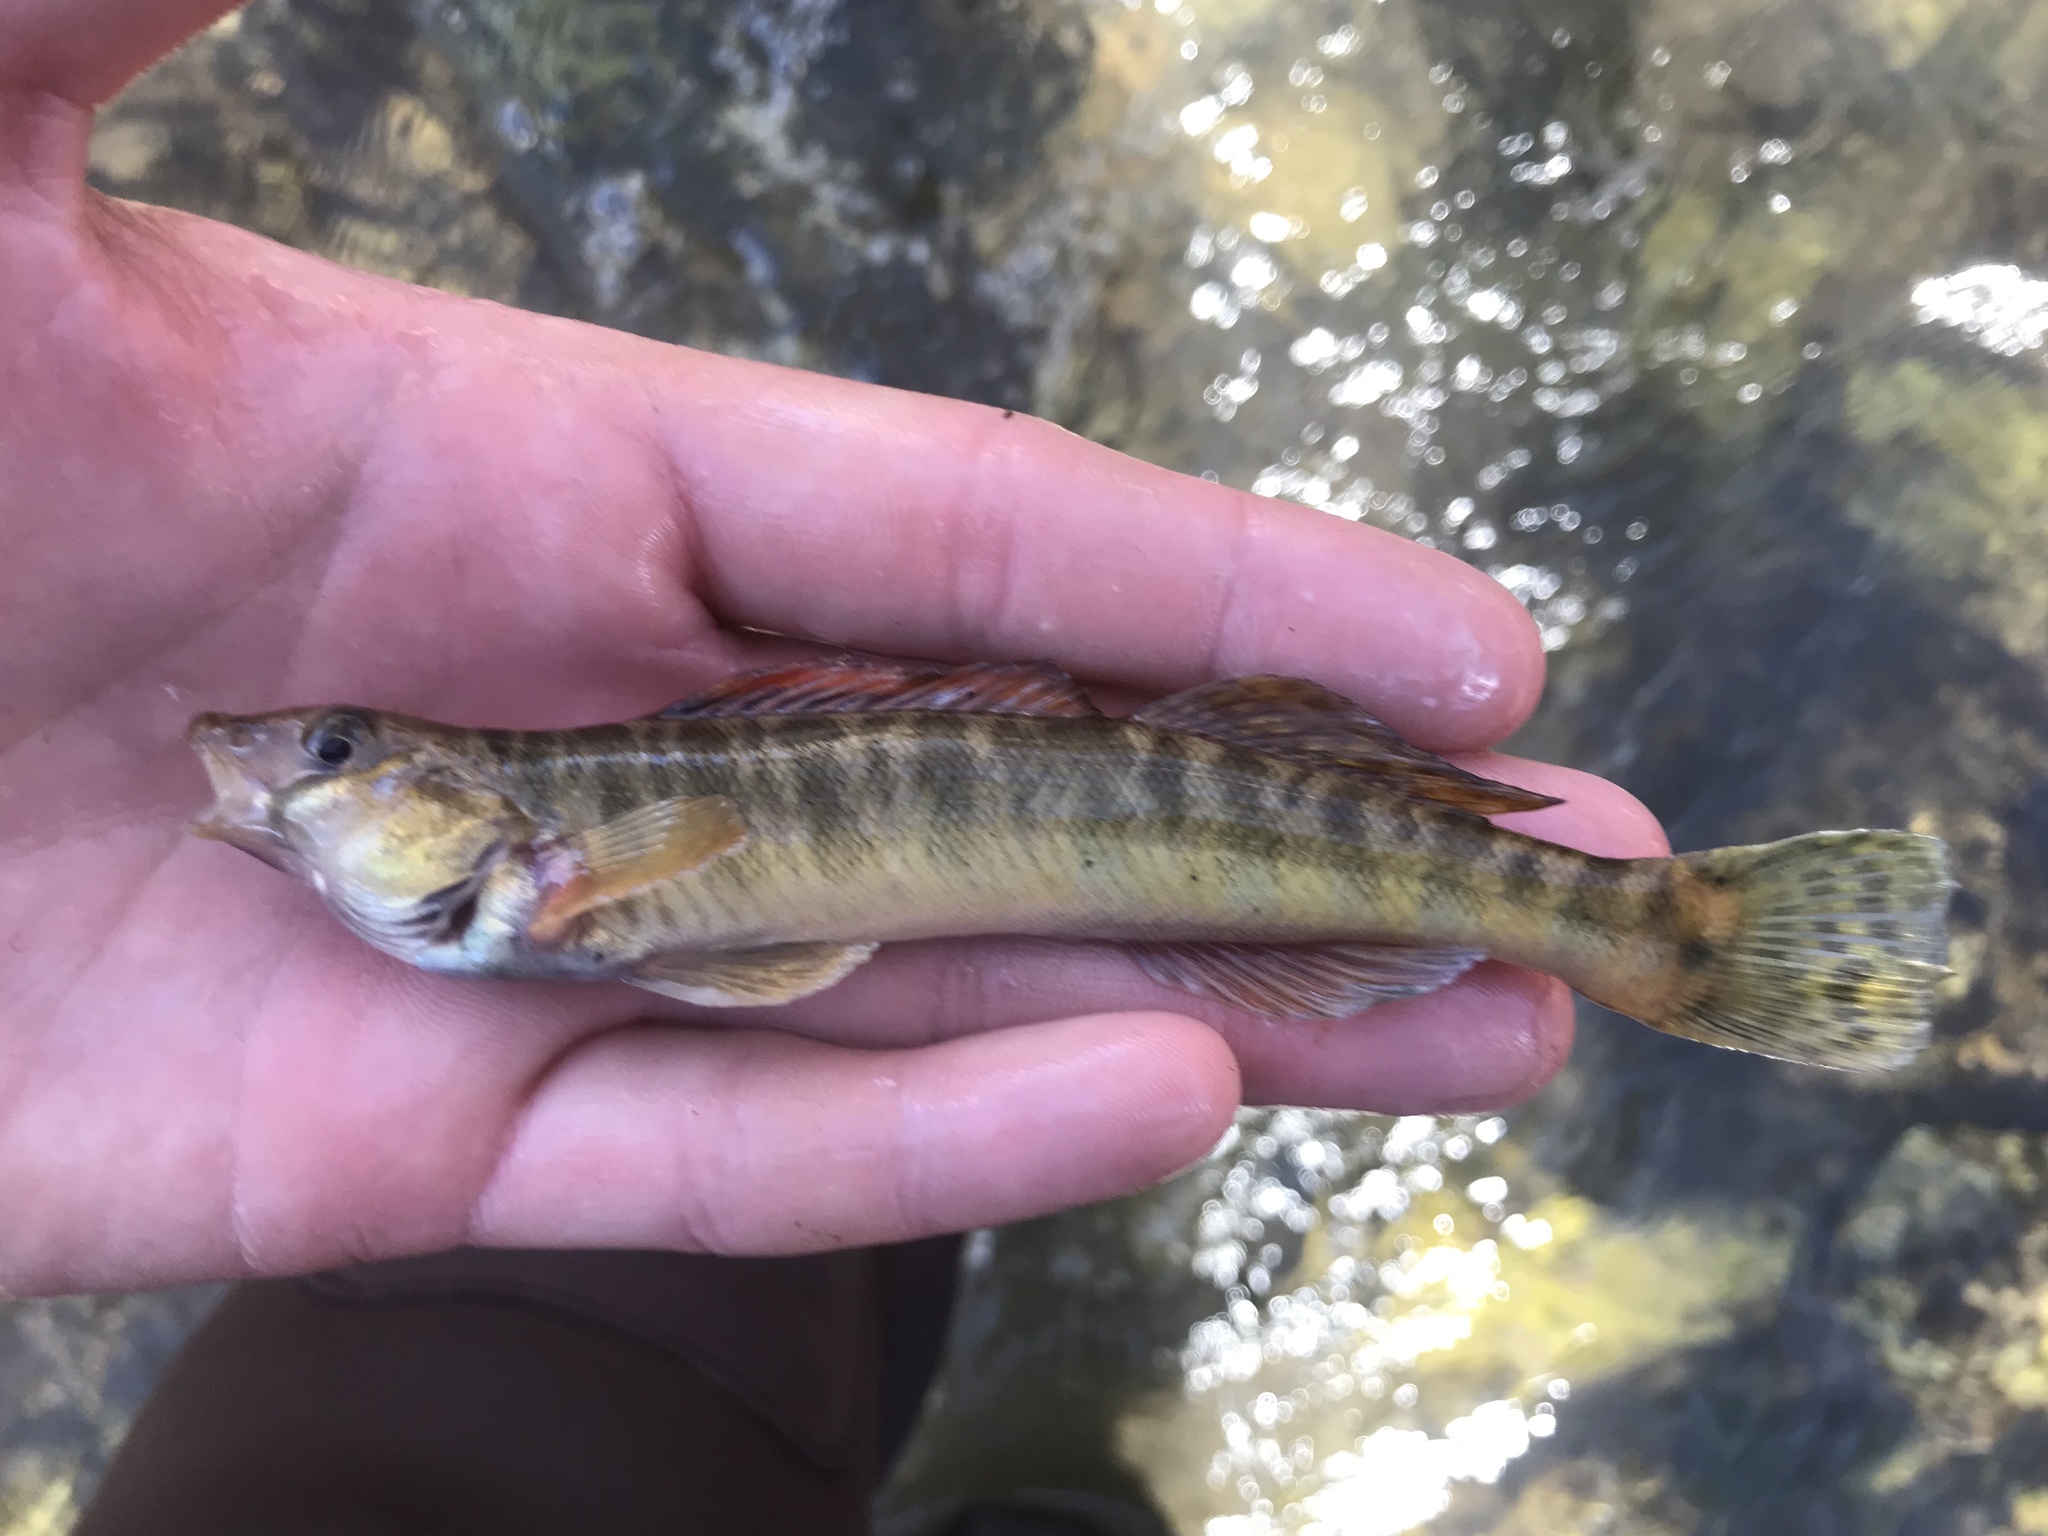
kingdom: Animalia
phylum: Chordata
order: Perciformes
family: Percidae
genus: Percina
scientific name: Percina carbonaria
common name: Texas logperch
